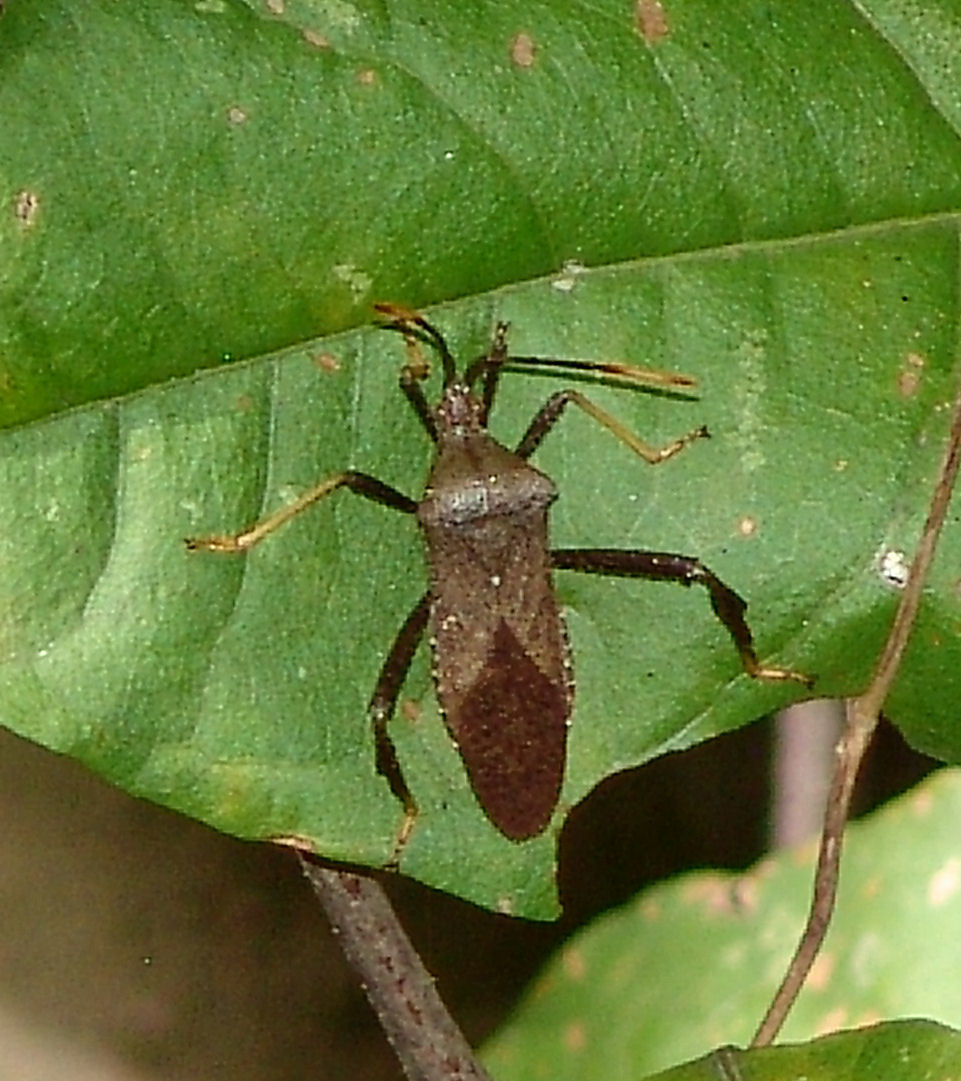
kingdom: Animalia
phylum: Arthropoda
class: Insecta
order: Hemiptera
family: Coreidae
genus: Acanthocephala
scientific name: Acanthocephala terminalis
